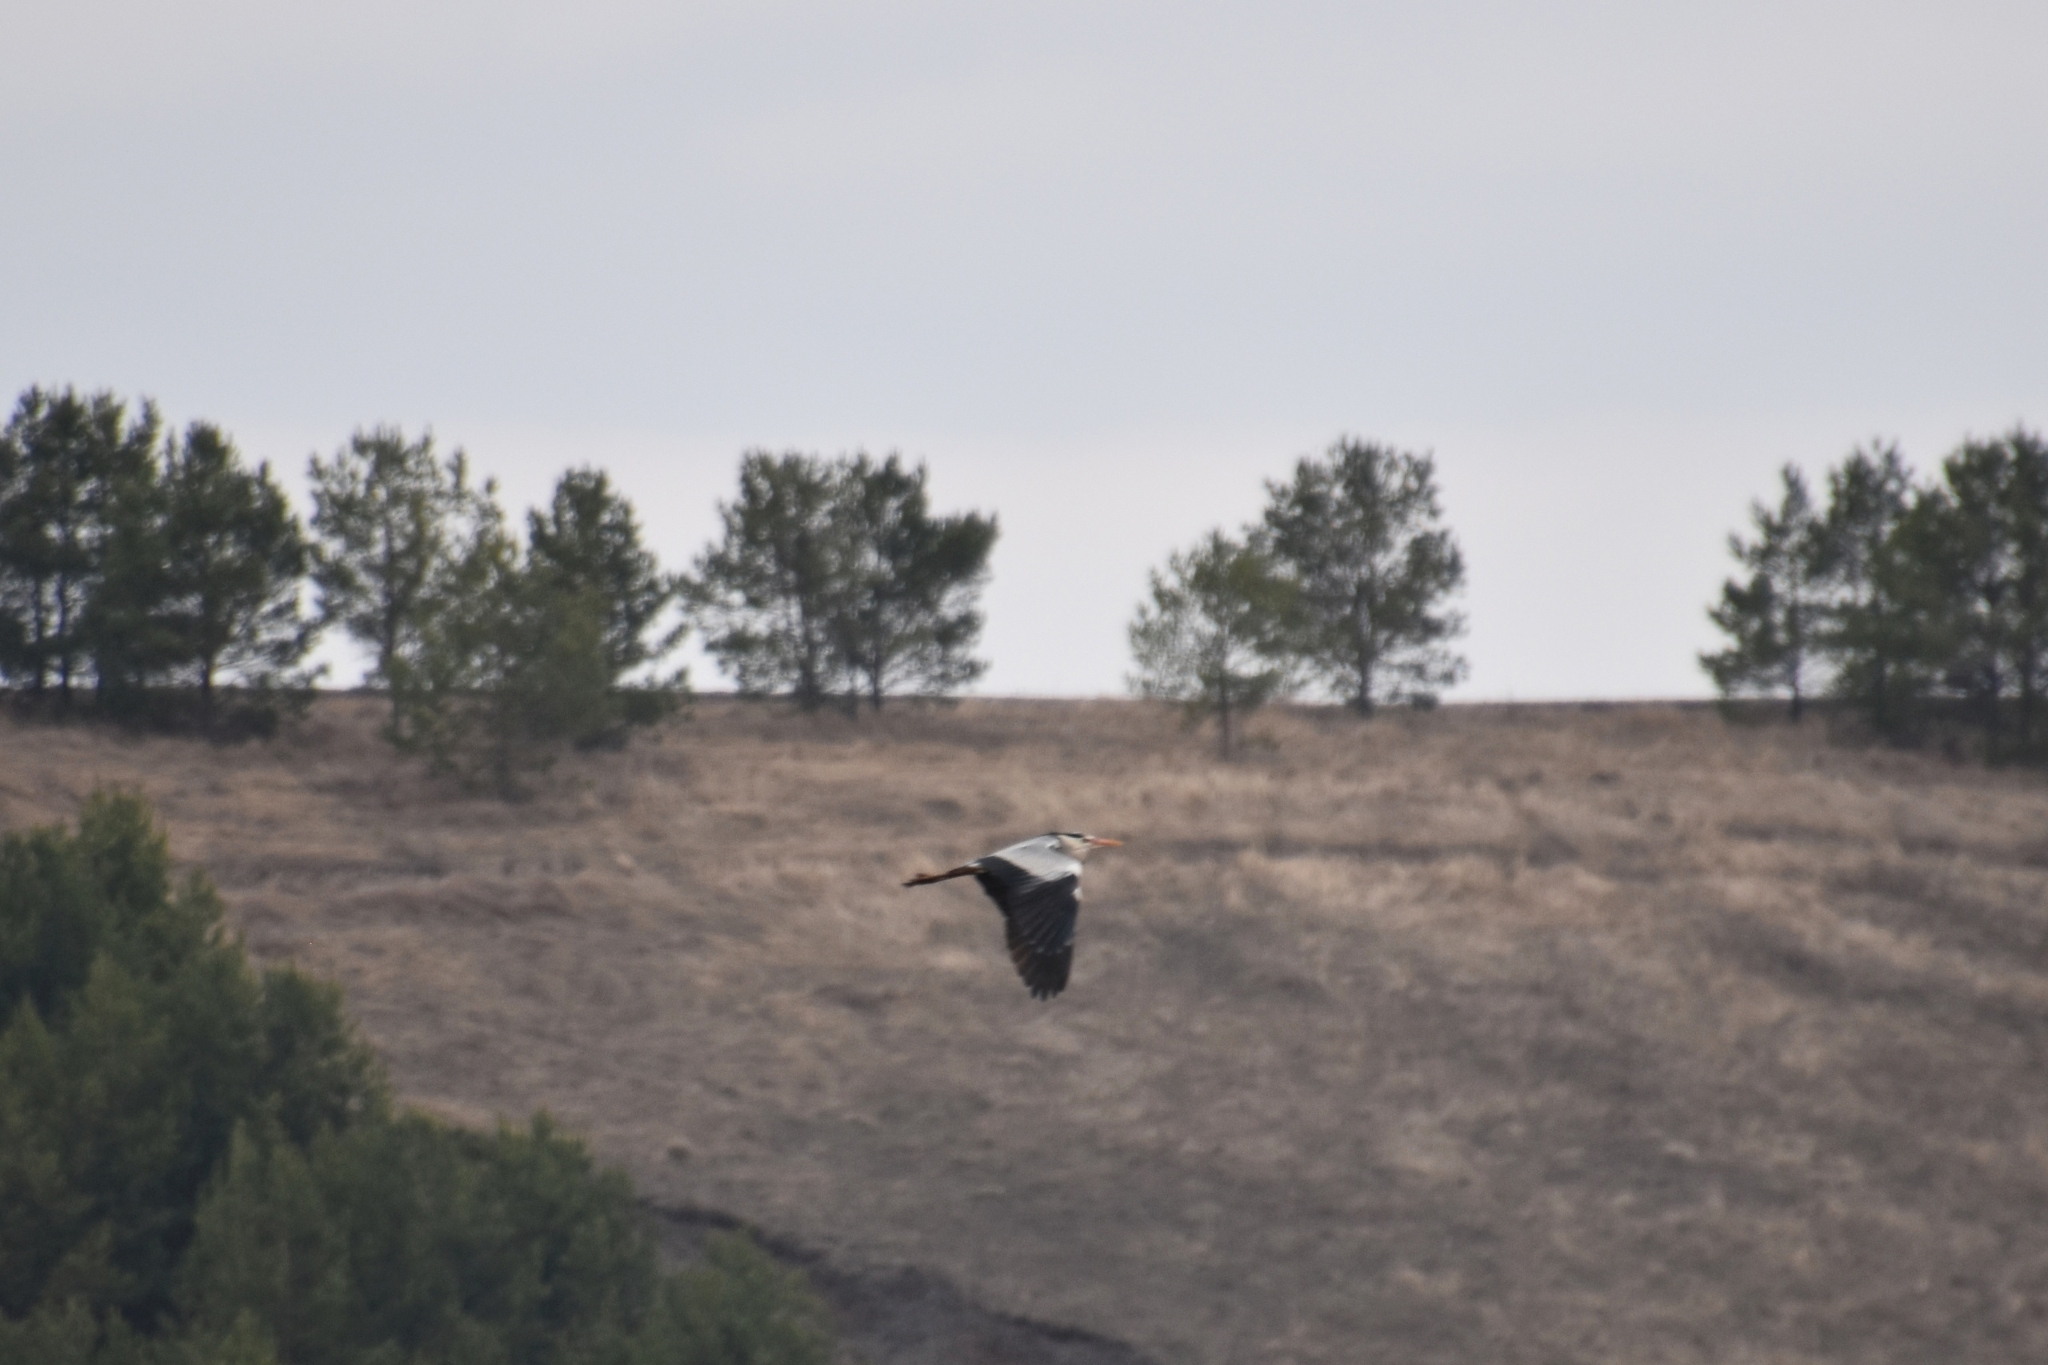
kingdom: Animalia
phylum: Chordata
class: Aves
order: Pelecaniformes
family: Ardeidae
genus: Ardea
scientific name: Ardea cinerea
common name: Grey heron
